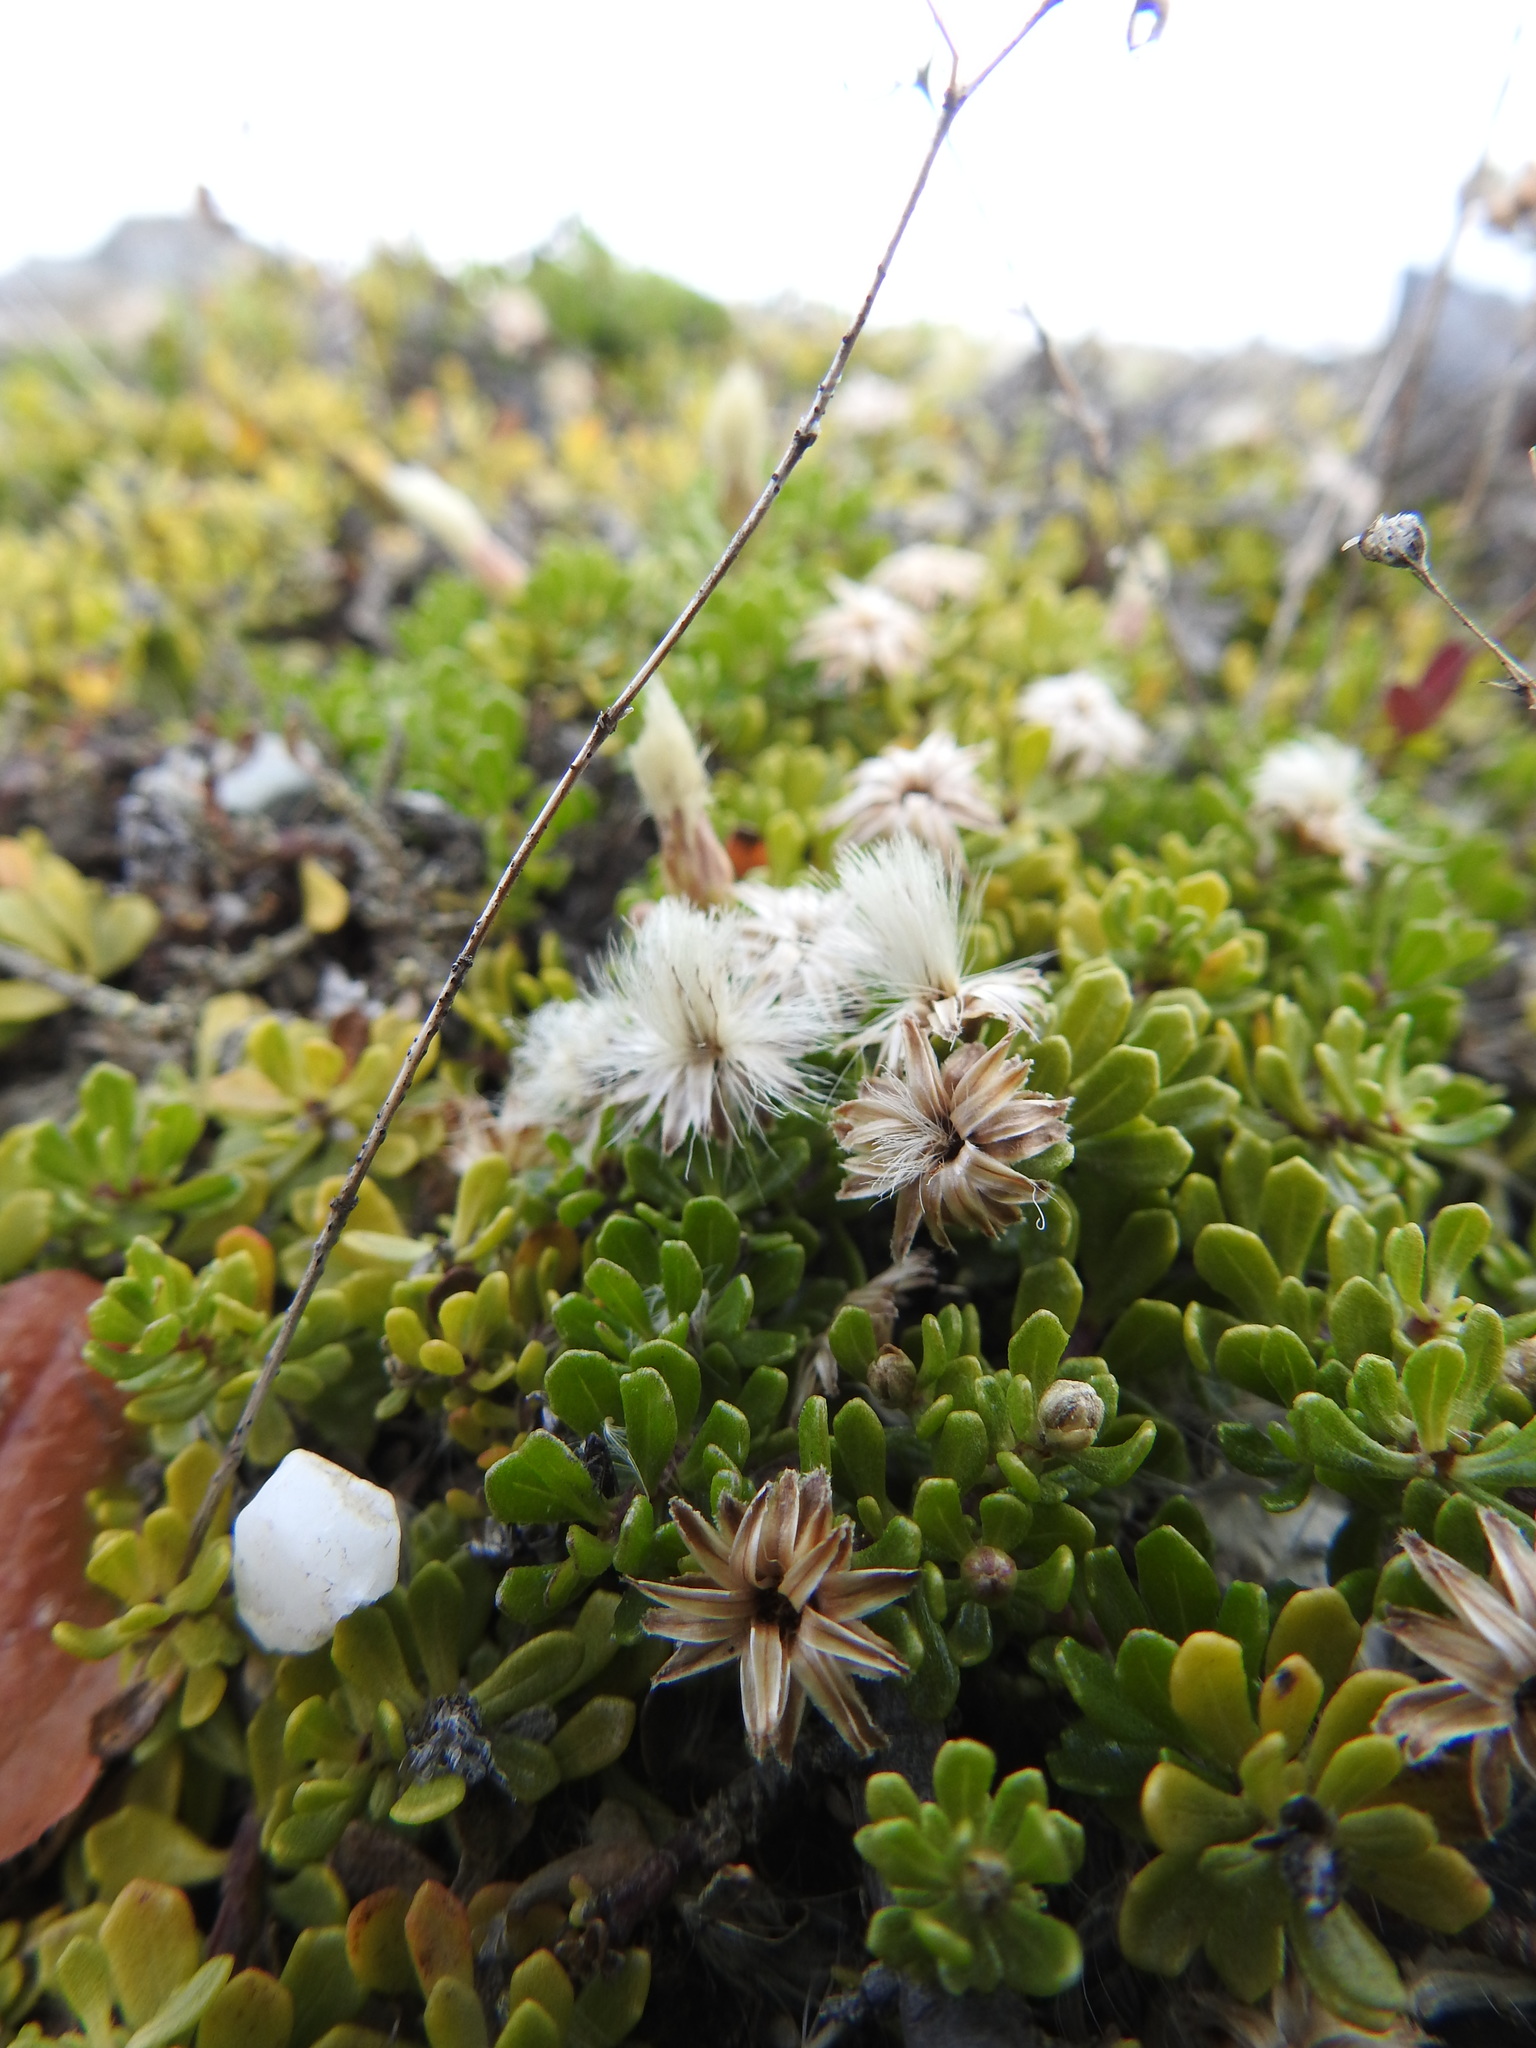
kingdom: Plantae
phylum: Tracheophyta
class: Magnoliopsida
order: Asterales
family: Asteraceae
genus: Baccharis
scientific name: Baccharis magellanica
